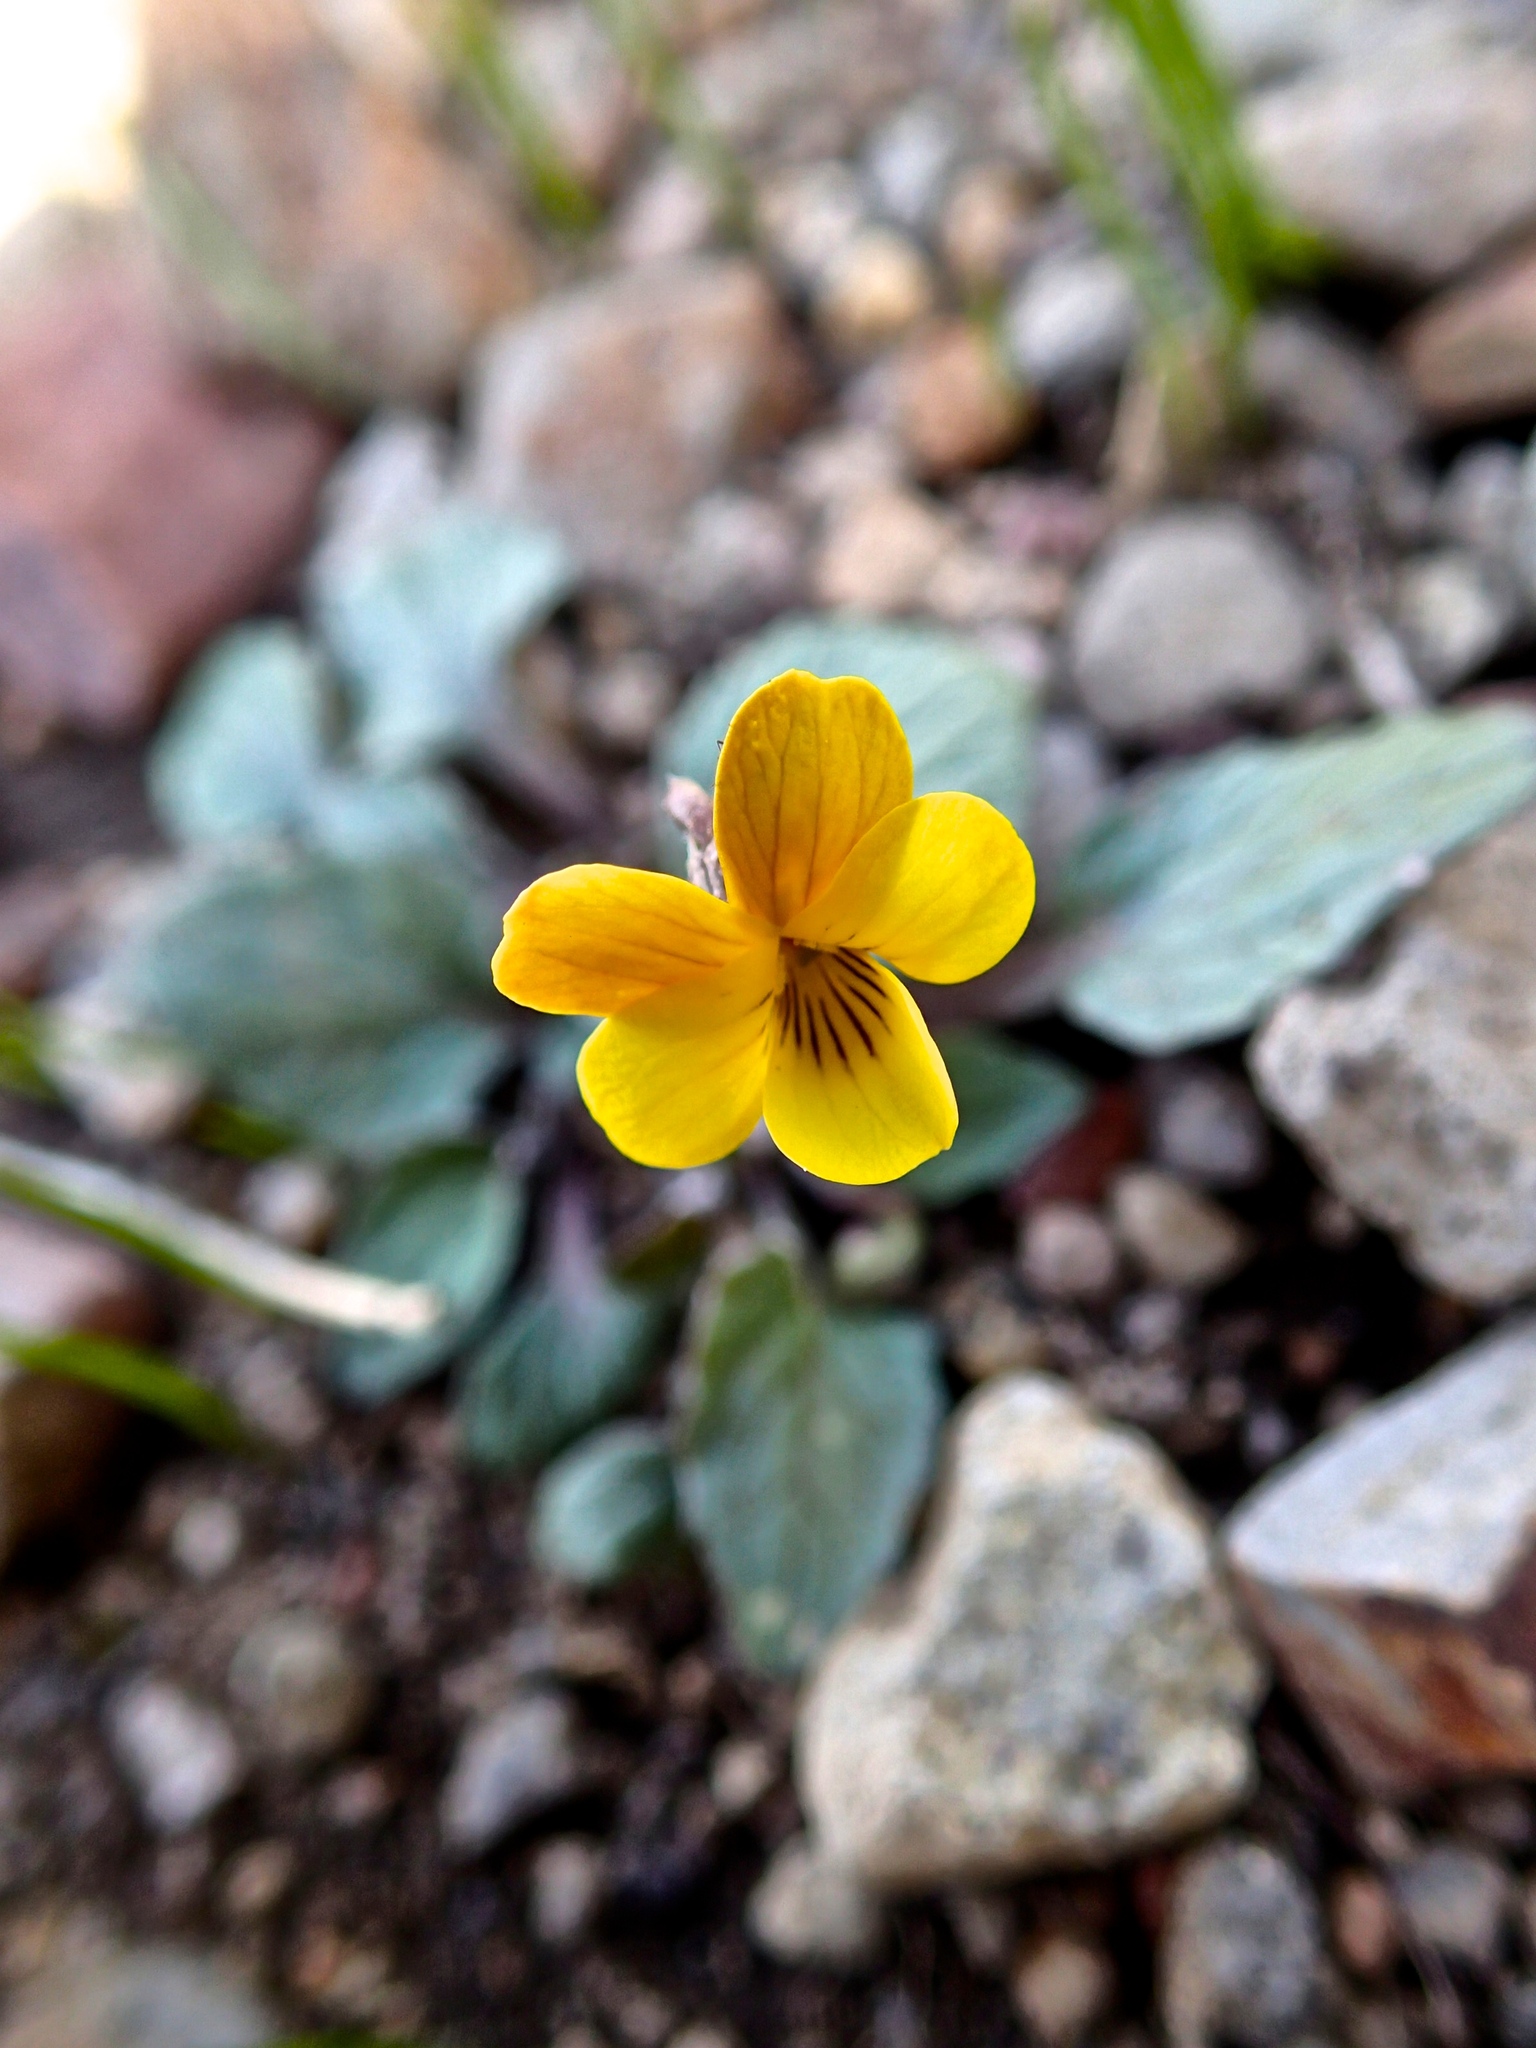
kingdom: Plantae
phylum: Tracheophyta
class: Magnoliopsida
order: Malpighiales
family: Violaceae
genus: Viola
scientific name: Viola purpurea
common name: Pine violet
